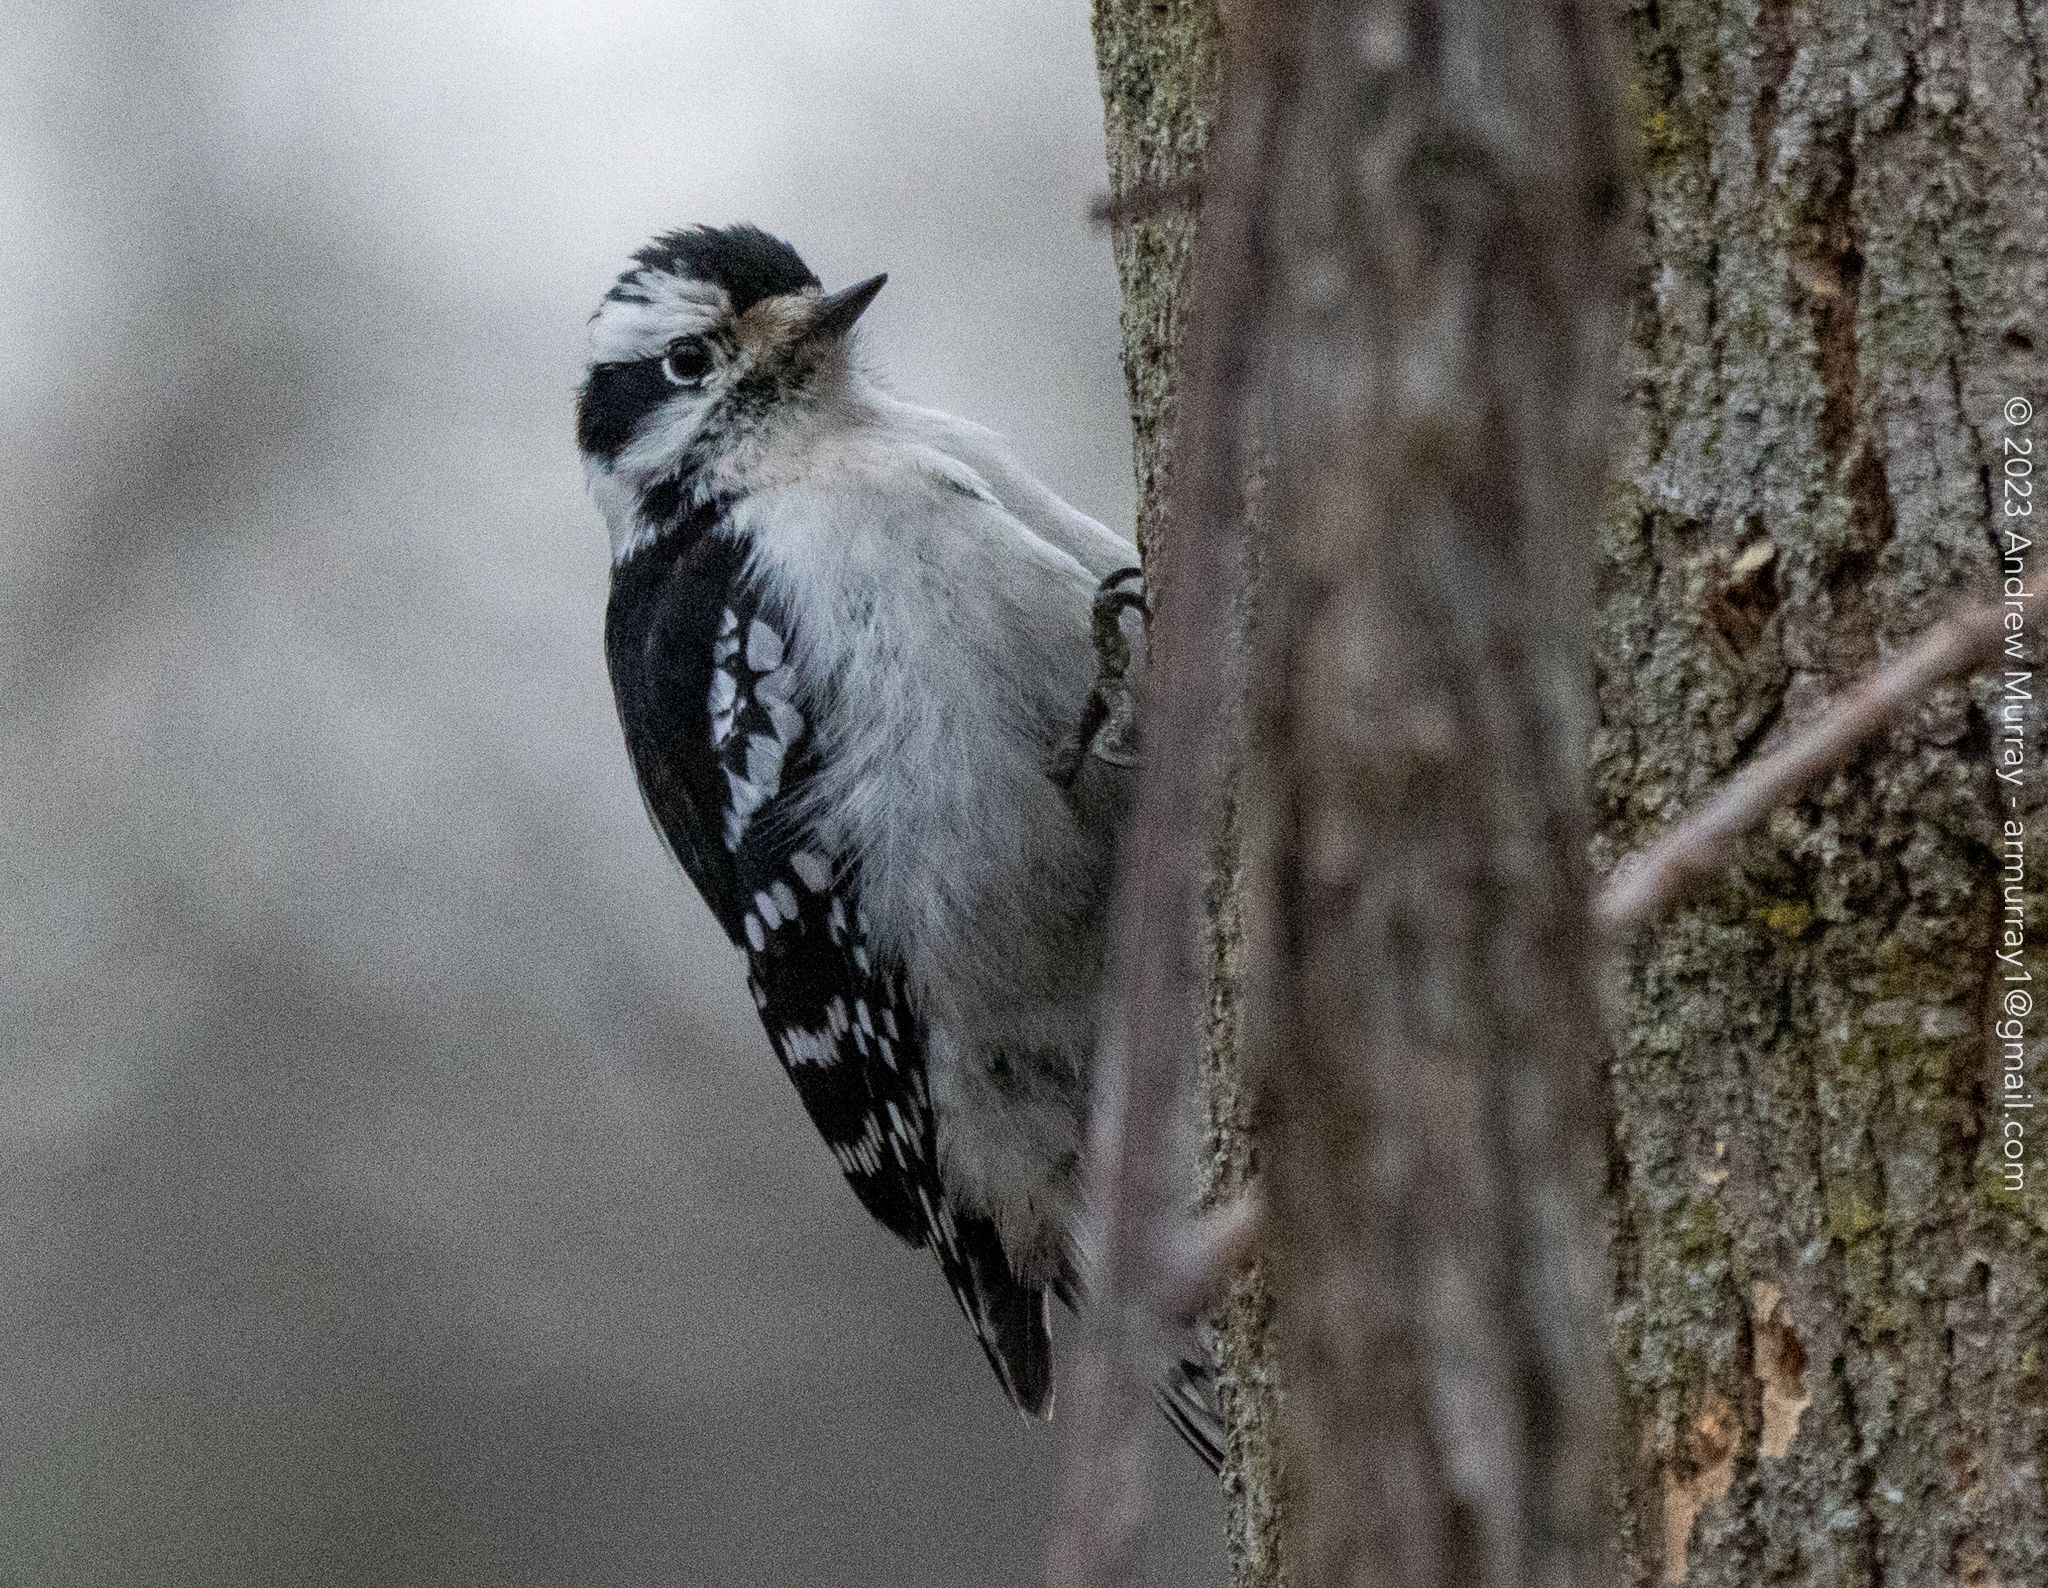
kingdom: Animalia
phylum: Chordata
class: Aves
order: Piciformes
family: Picidae
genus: Dryobates
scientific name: Dryobates pubescens
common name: Downy woodpecker
